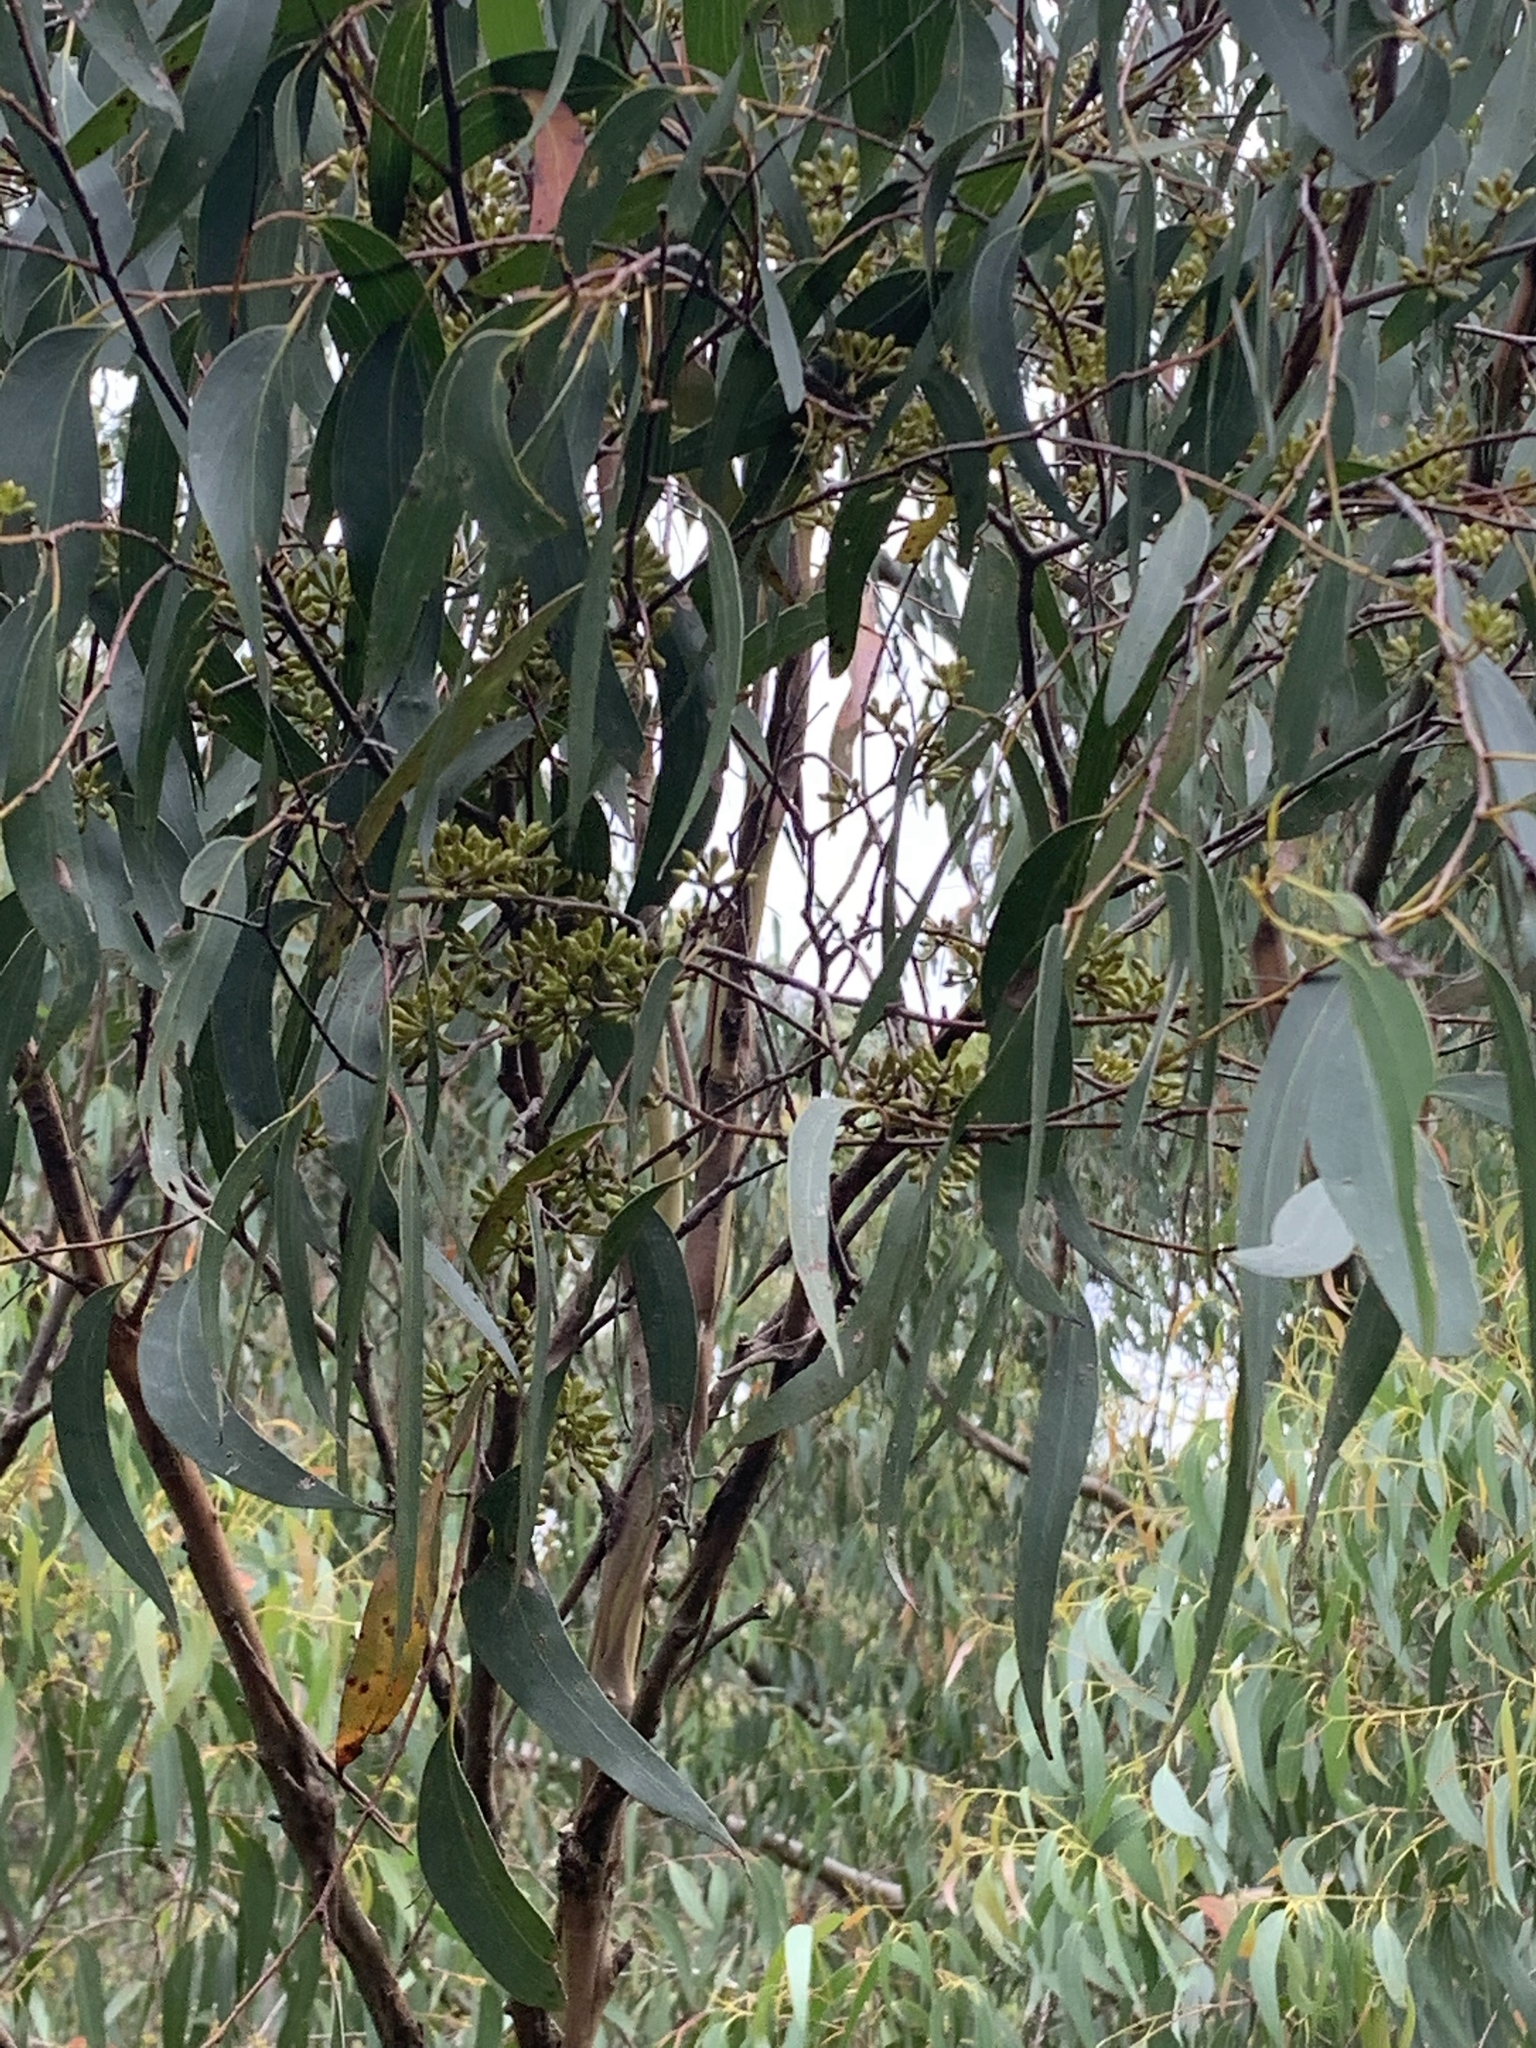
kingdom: Plantae
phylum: Tracheophyta
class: Magnoliopsida
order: Myrtales
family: Myrtaceae
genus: Eucalyptus
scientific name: Eucalyptus regnans
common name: Stringy gum
